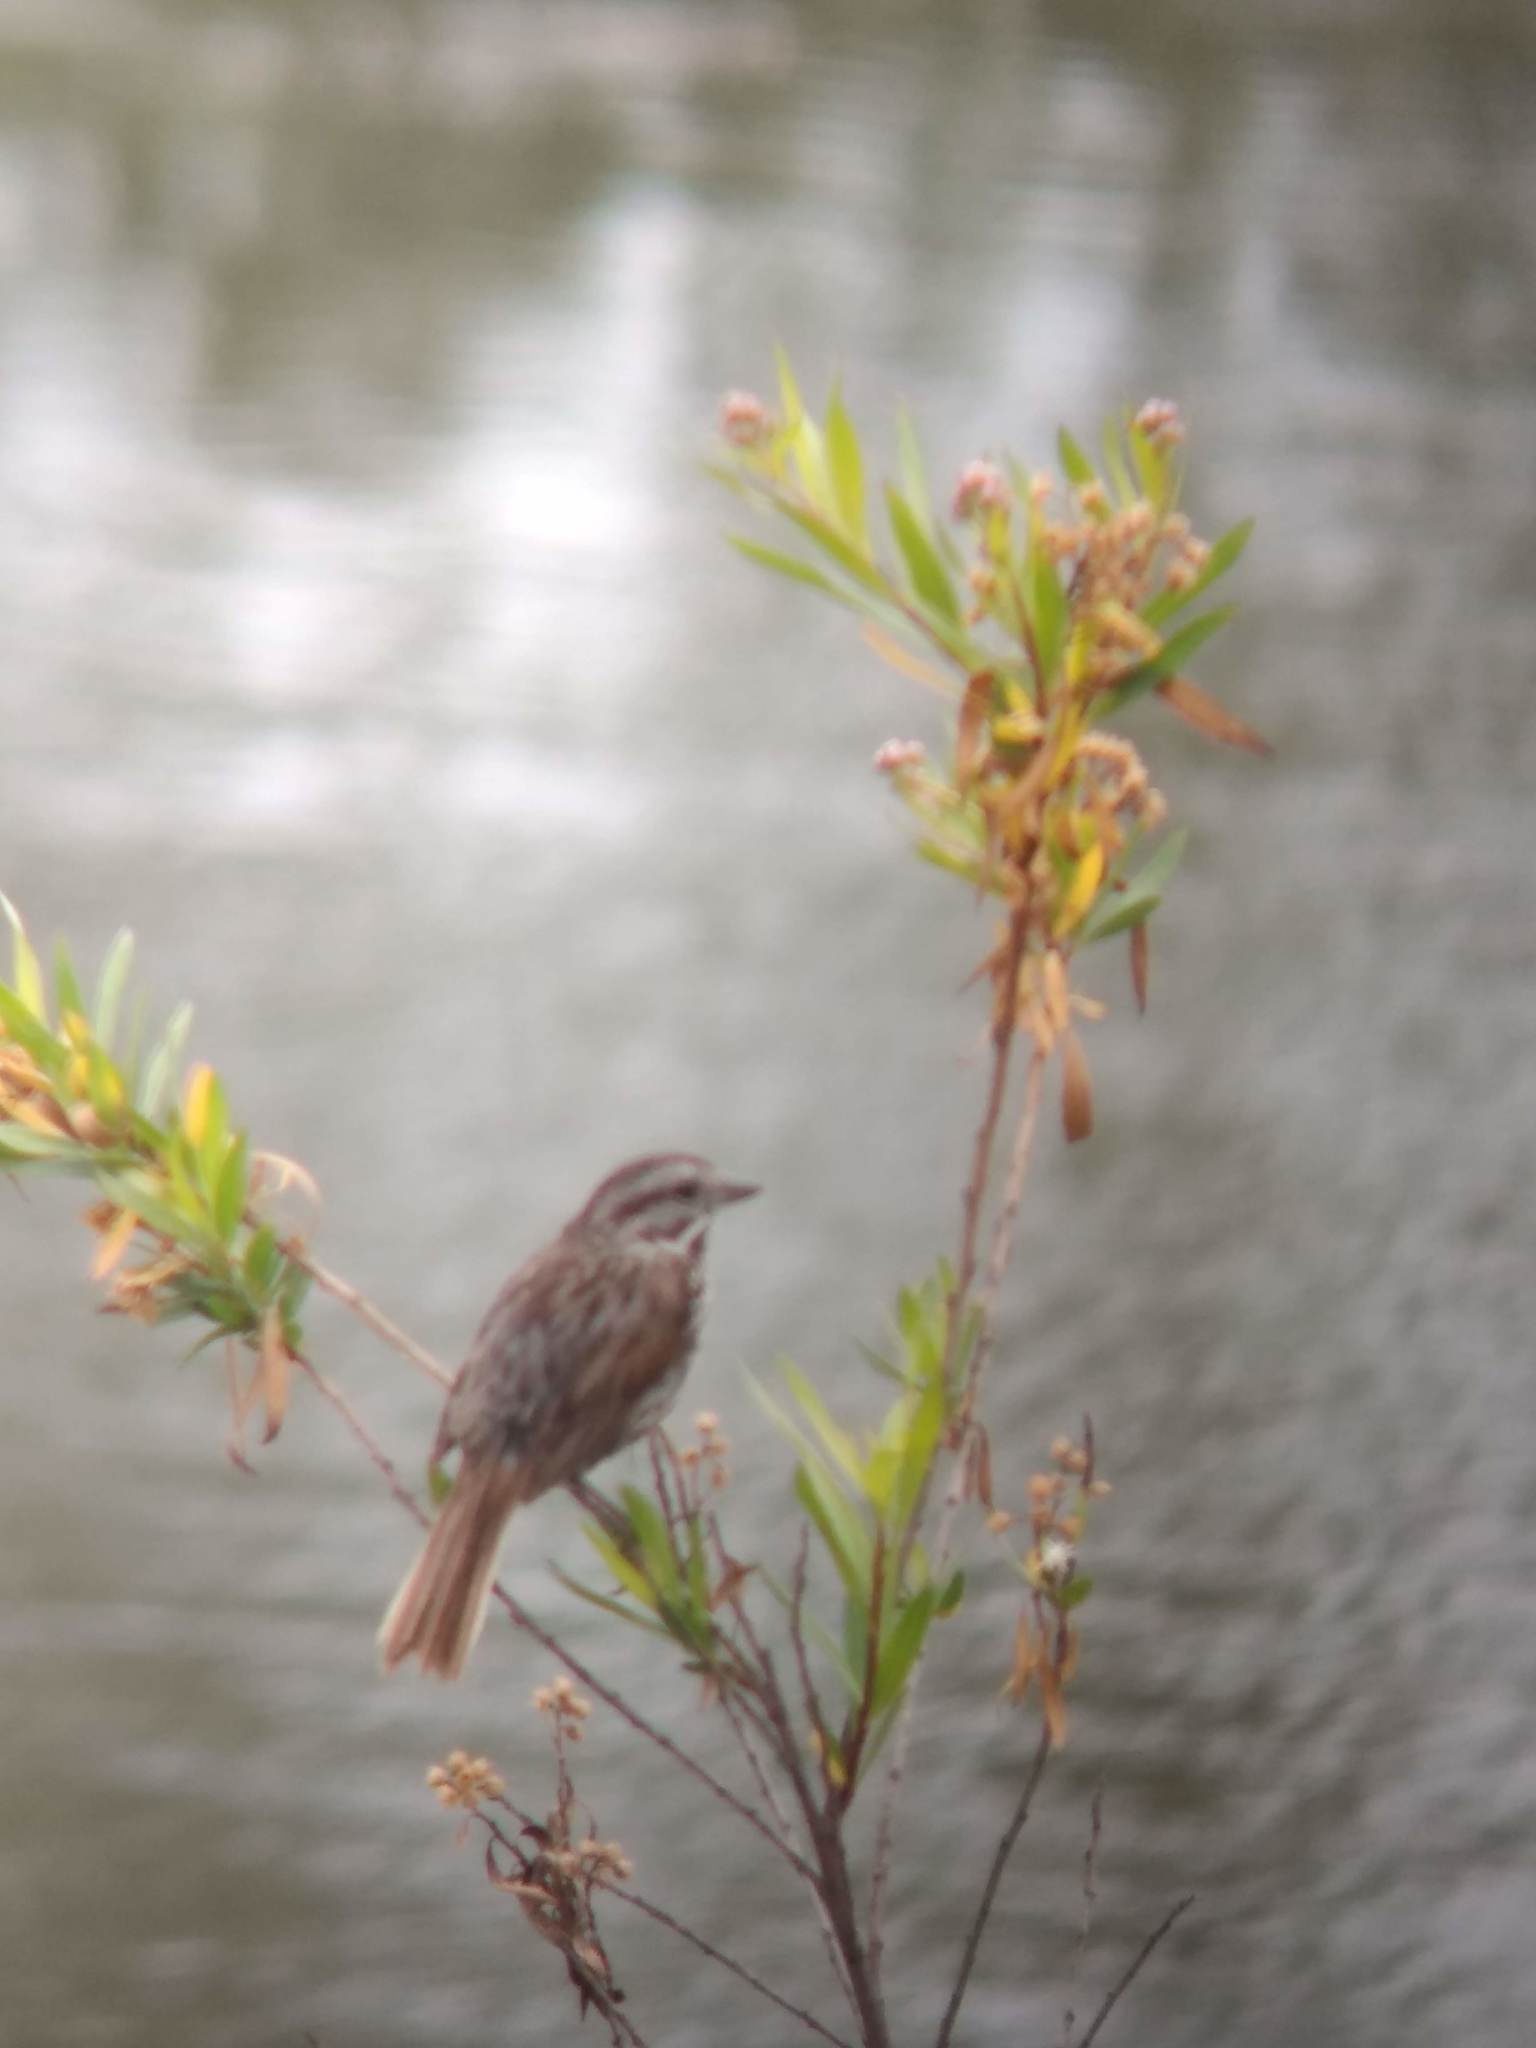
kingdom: Animalia
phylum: Chordata
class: Aves
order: Passeriformes
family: Passerellidae
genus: Melospiza
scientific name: Melospiza melodia
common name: Song sparrow
